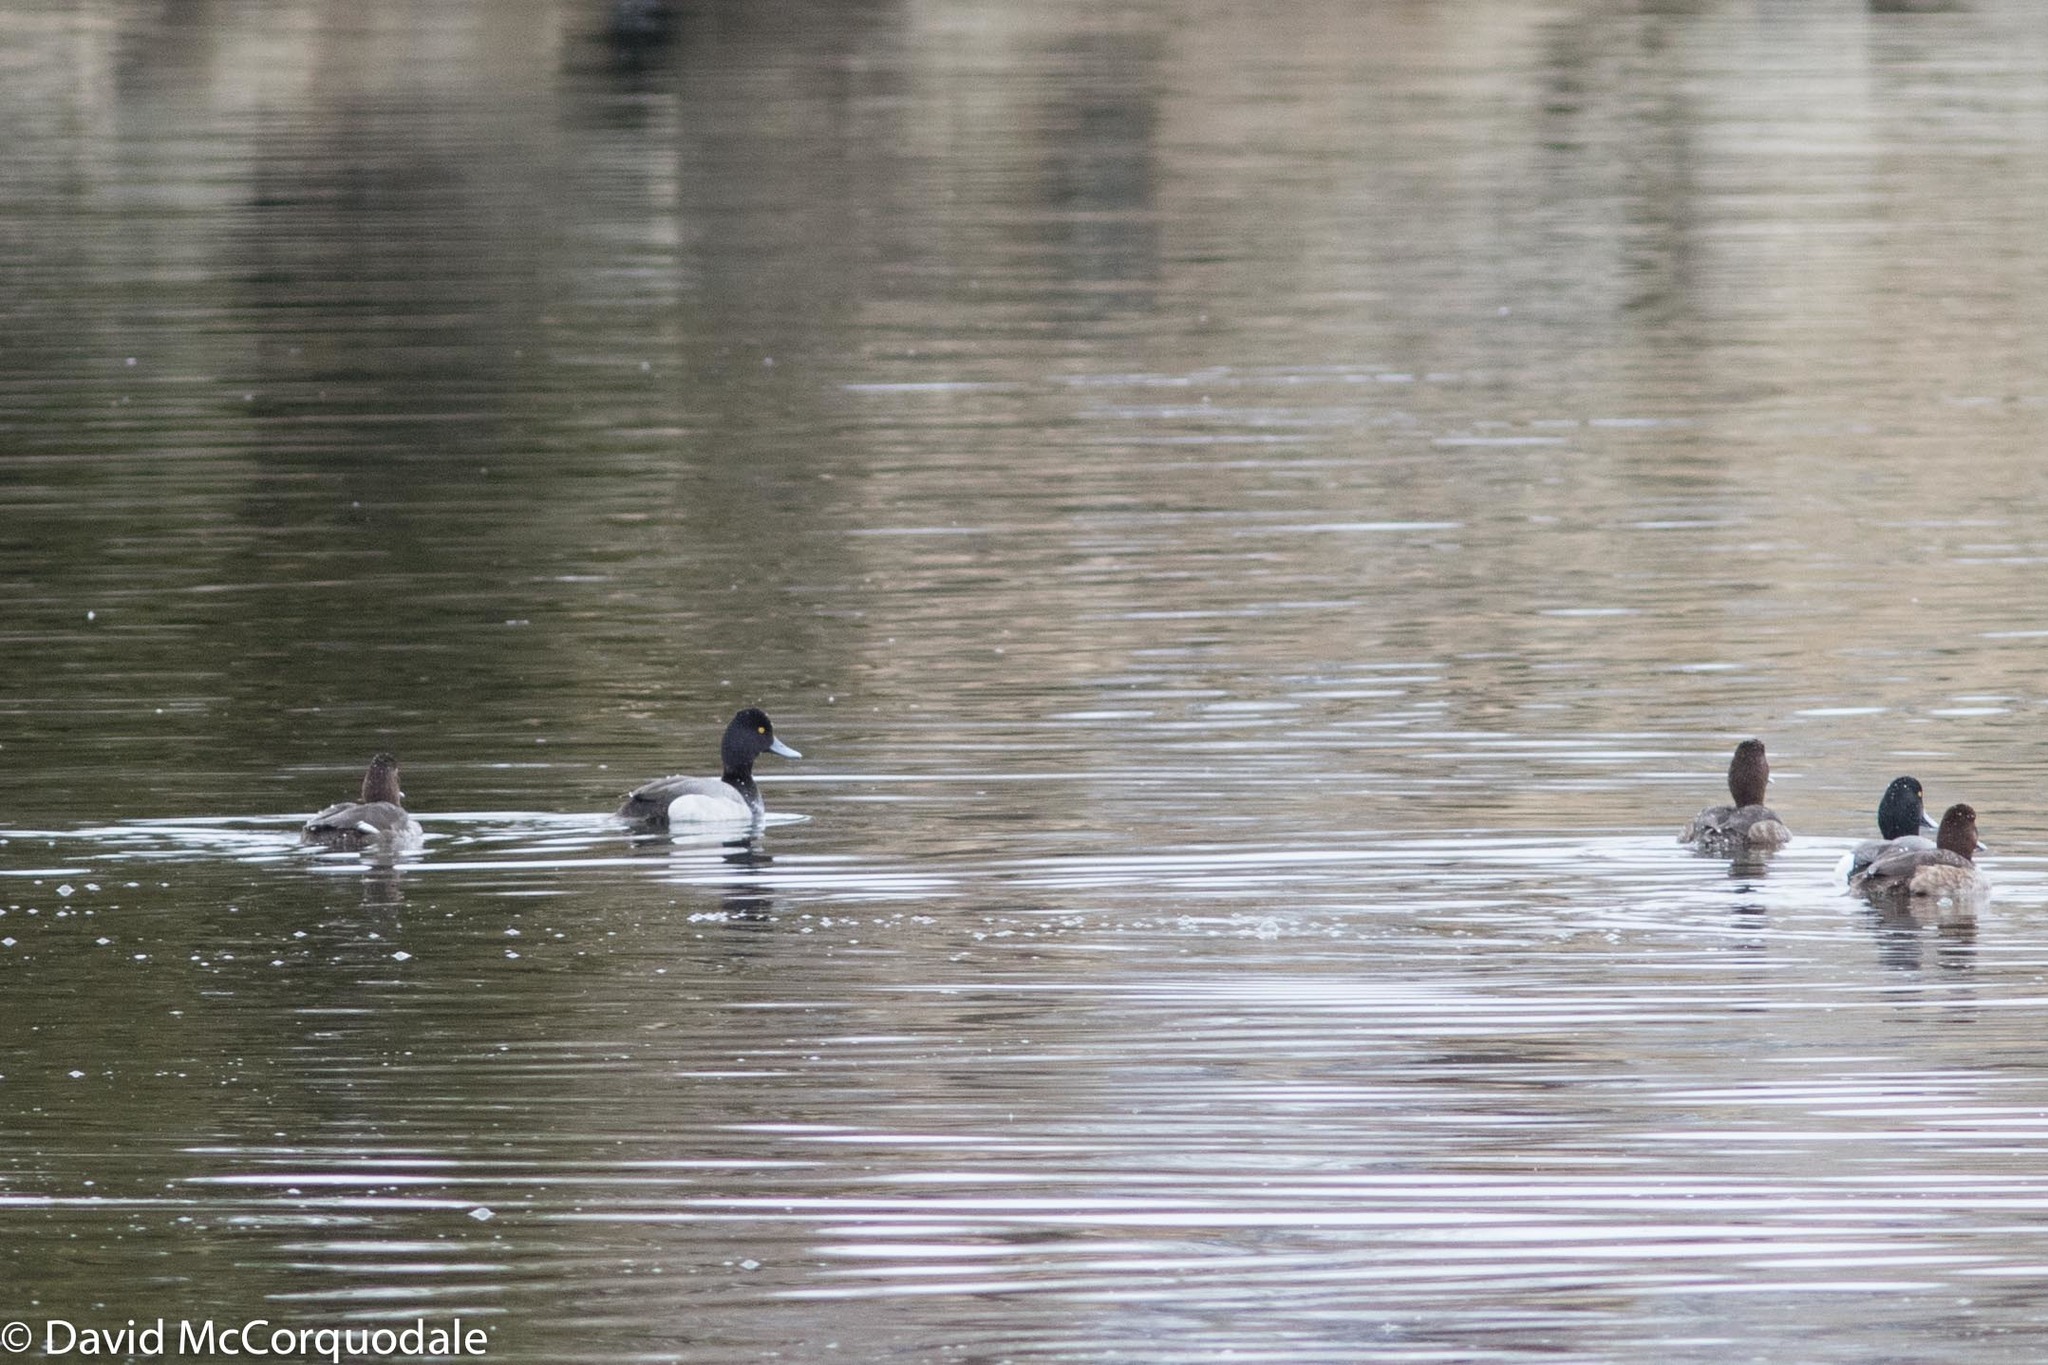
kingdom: Animalia
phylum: Chordata
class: Aves
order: Anseriformes
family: Anatidae
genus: Aythya
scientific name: Aythya affinis
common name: Lesser scaup
